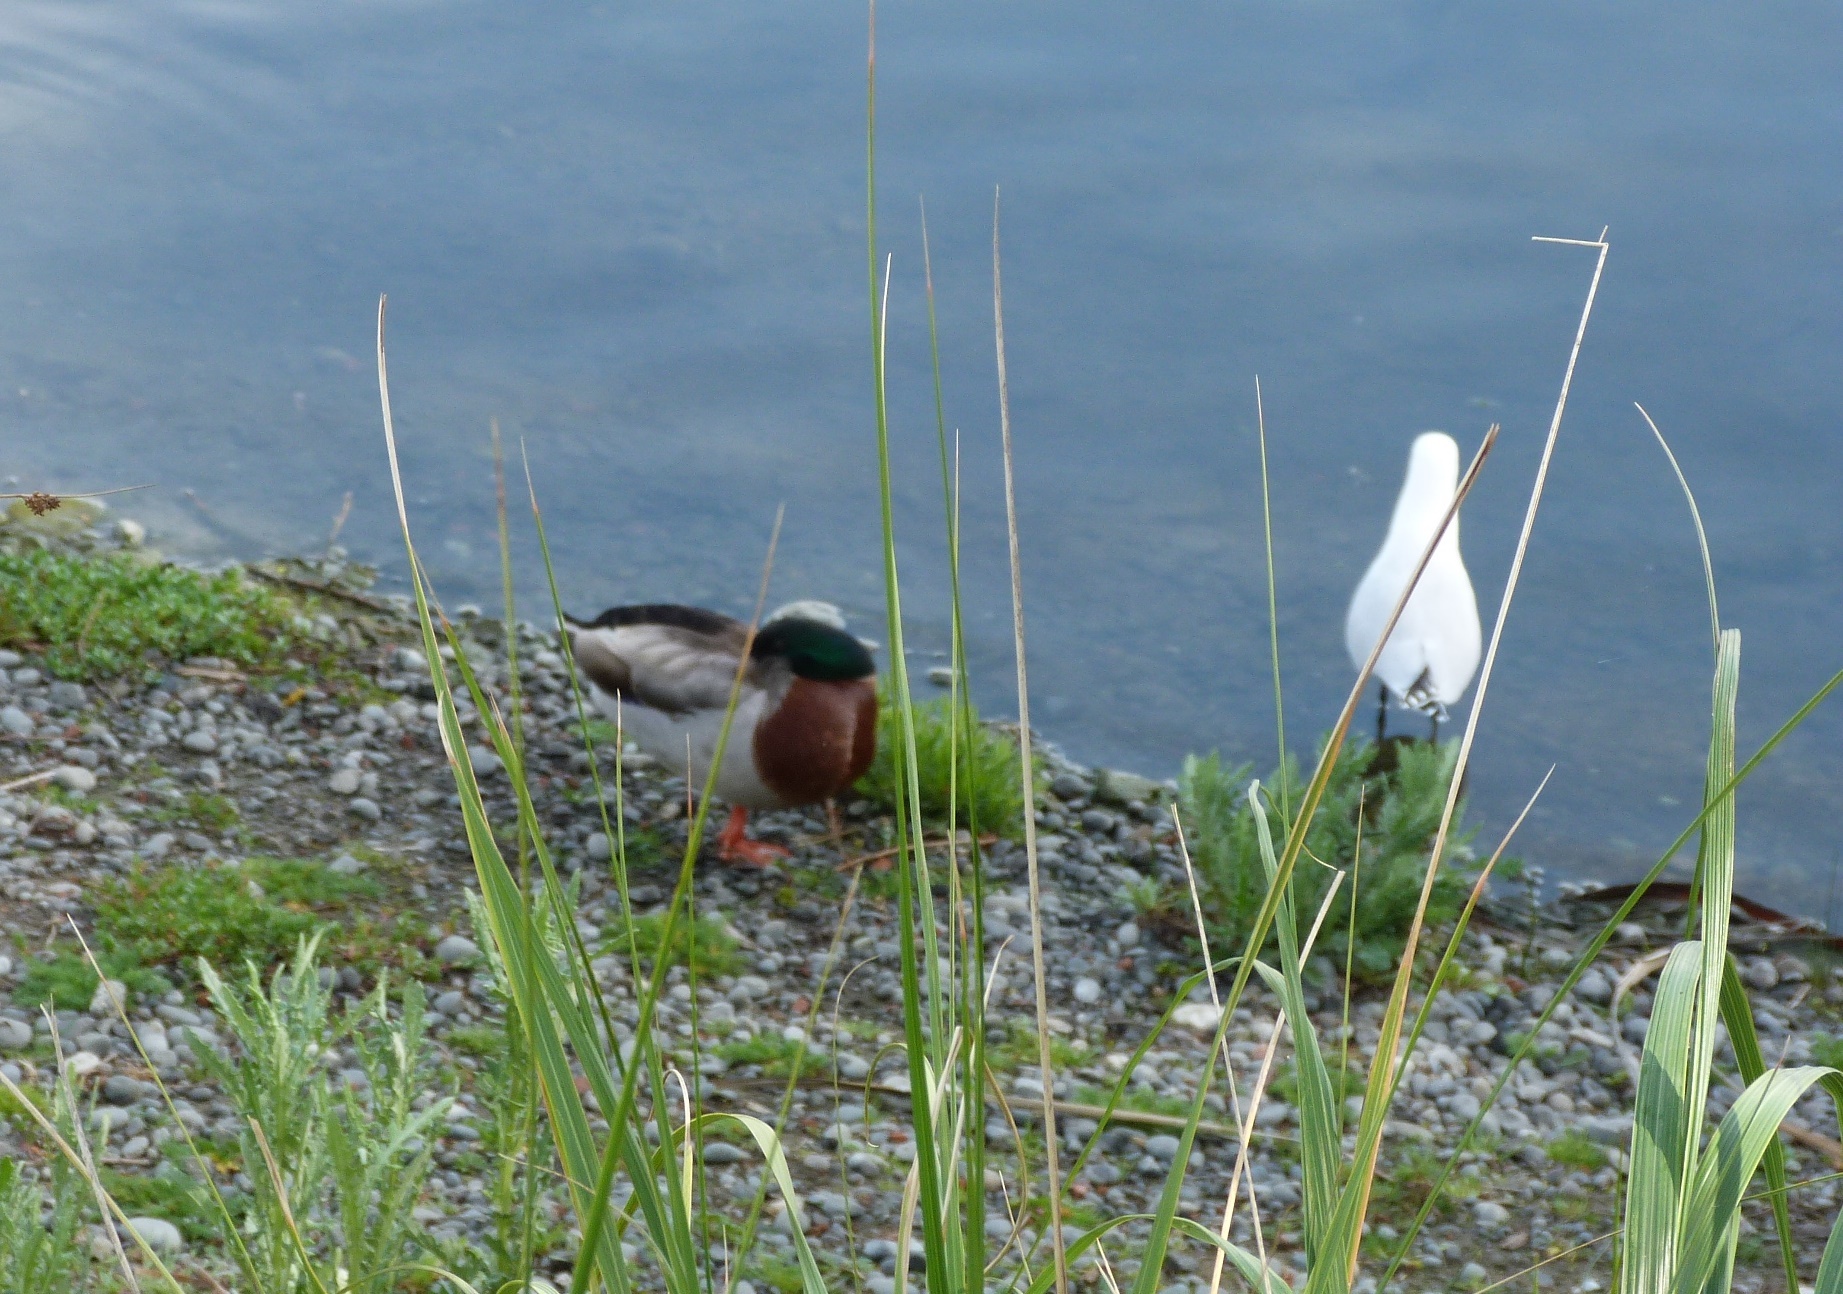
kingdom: Animalia
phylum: Chordata
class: Aves
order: Anseriformes
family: Anatidae
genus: Anas
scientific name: Anas platyrhynchos
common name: Mallard
